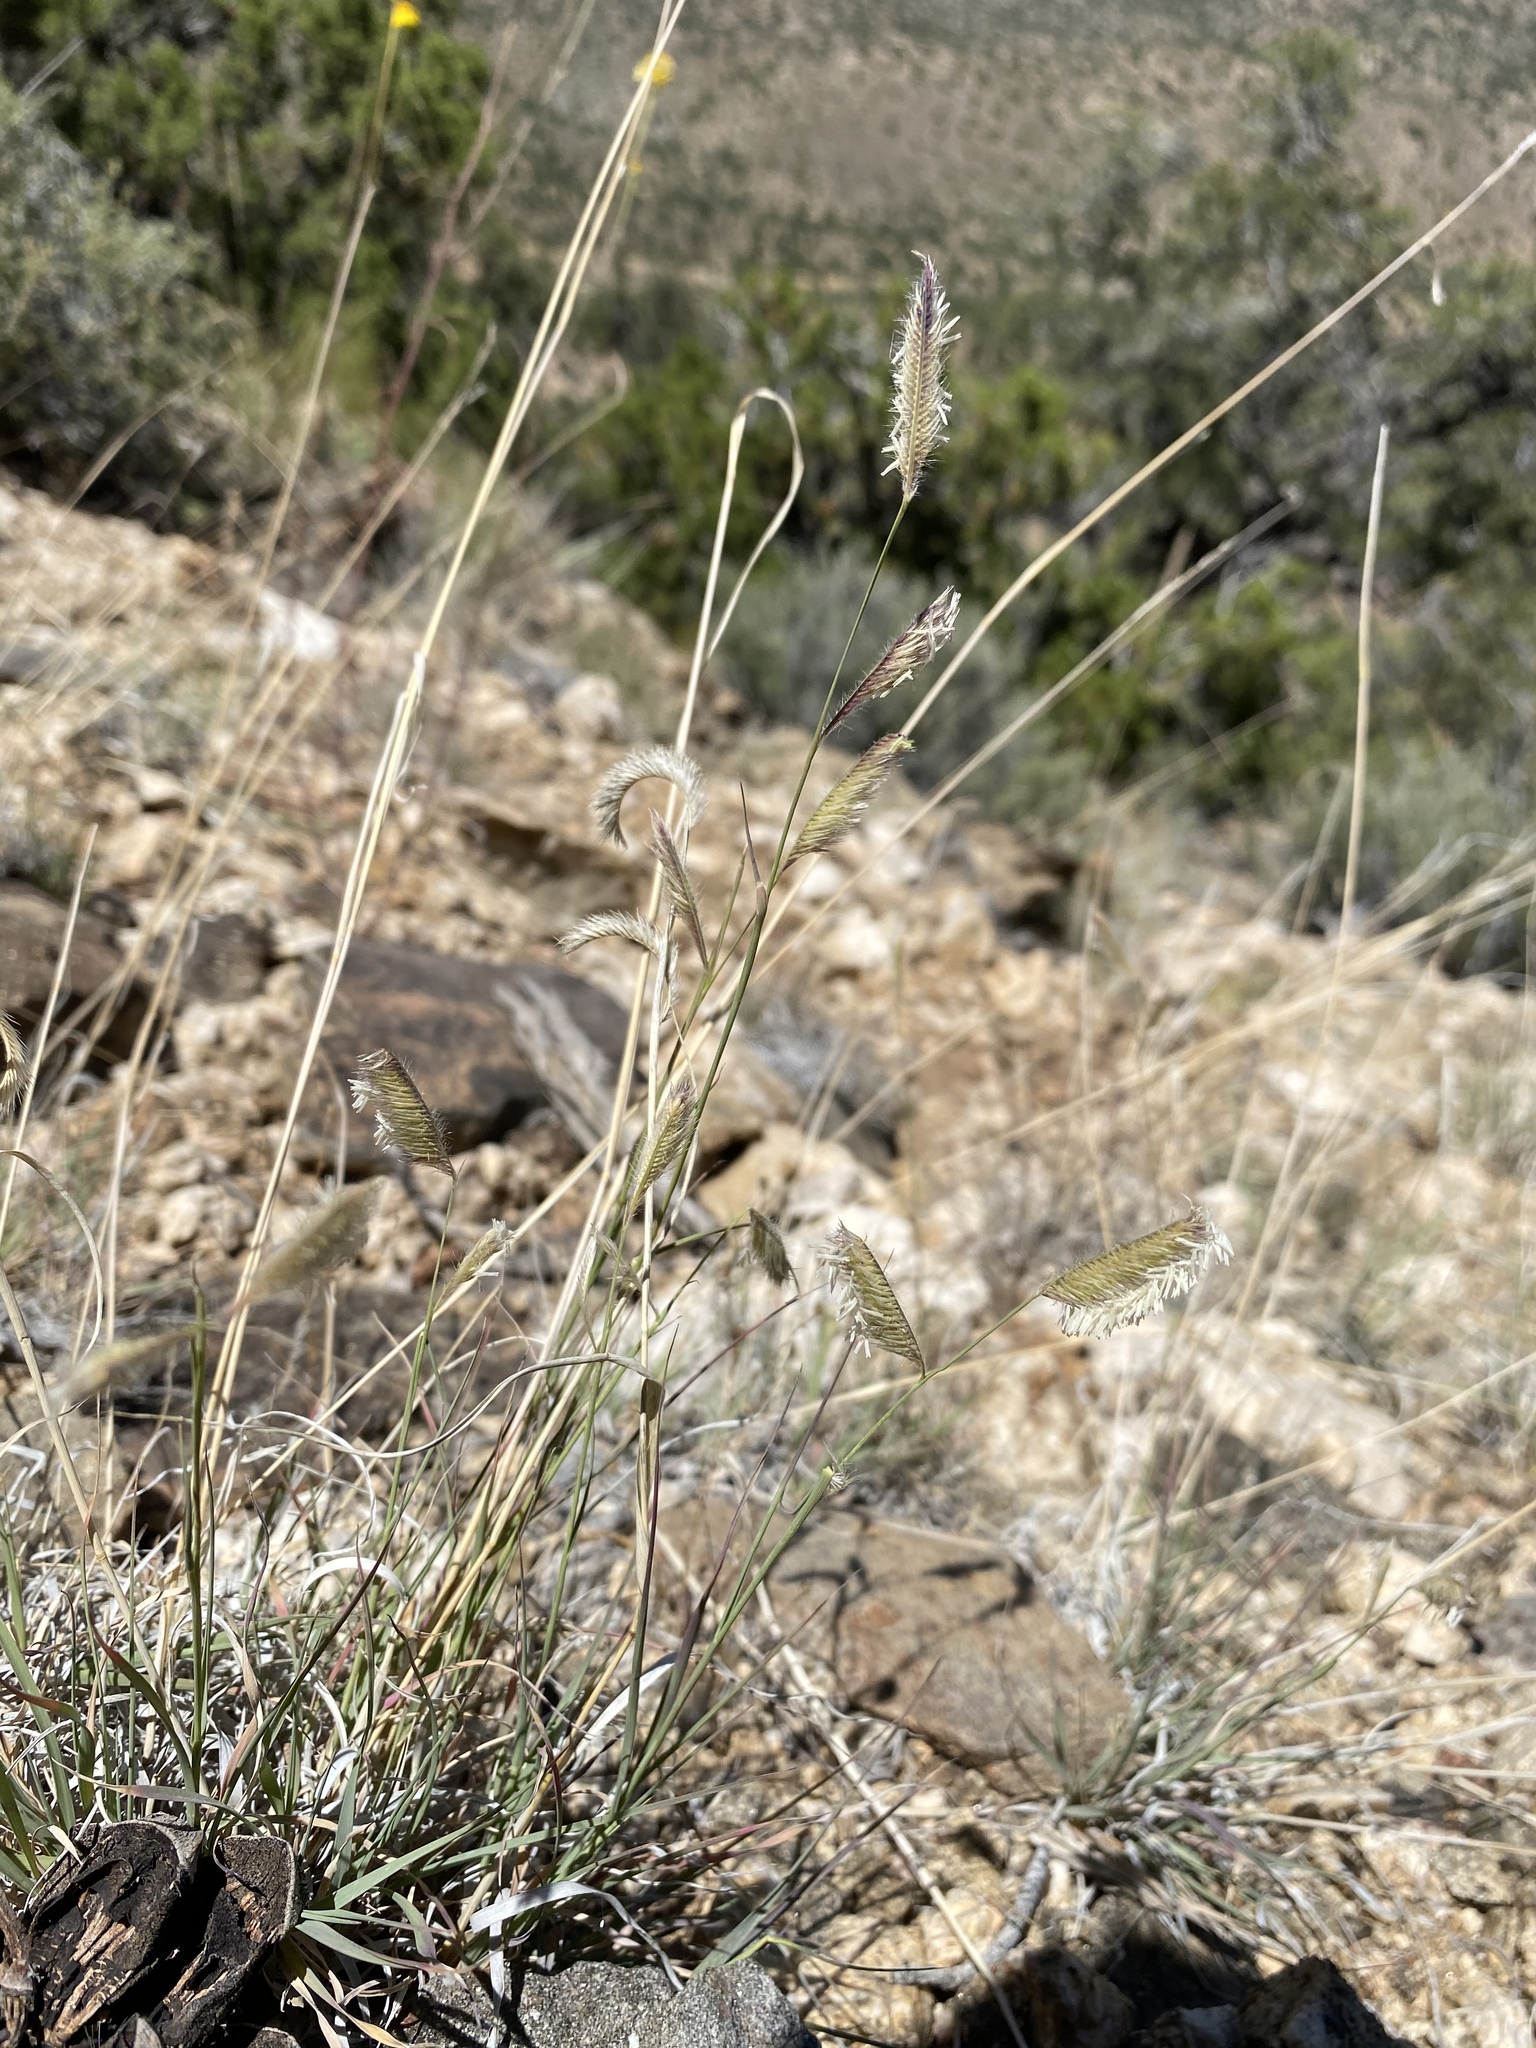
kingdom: Plantae
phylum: Tracheophyta
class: Liliopsida
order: Poales
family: Poaceae
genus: Bouteloua
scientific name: Bouteloua gracilis
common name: Blue grama
